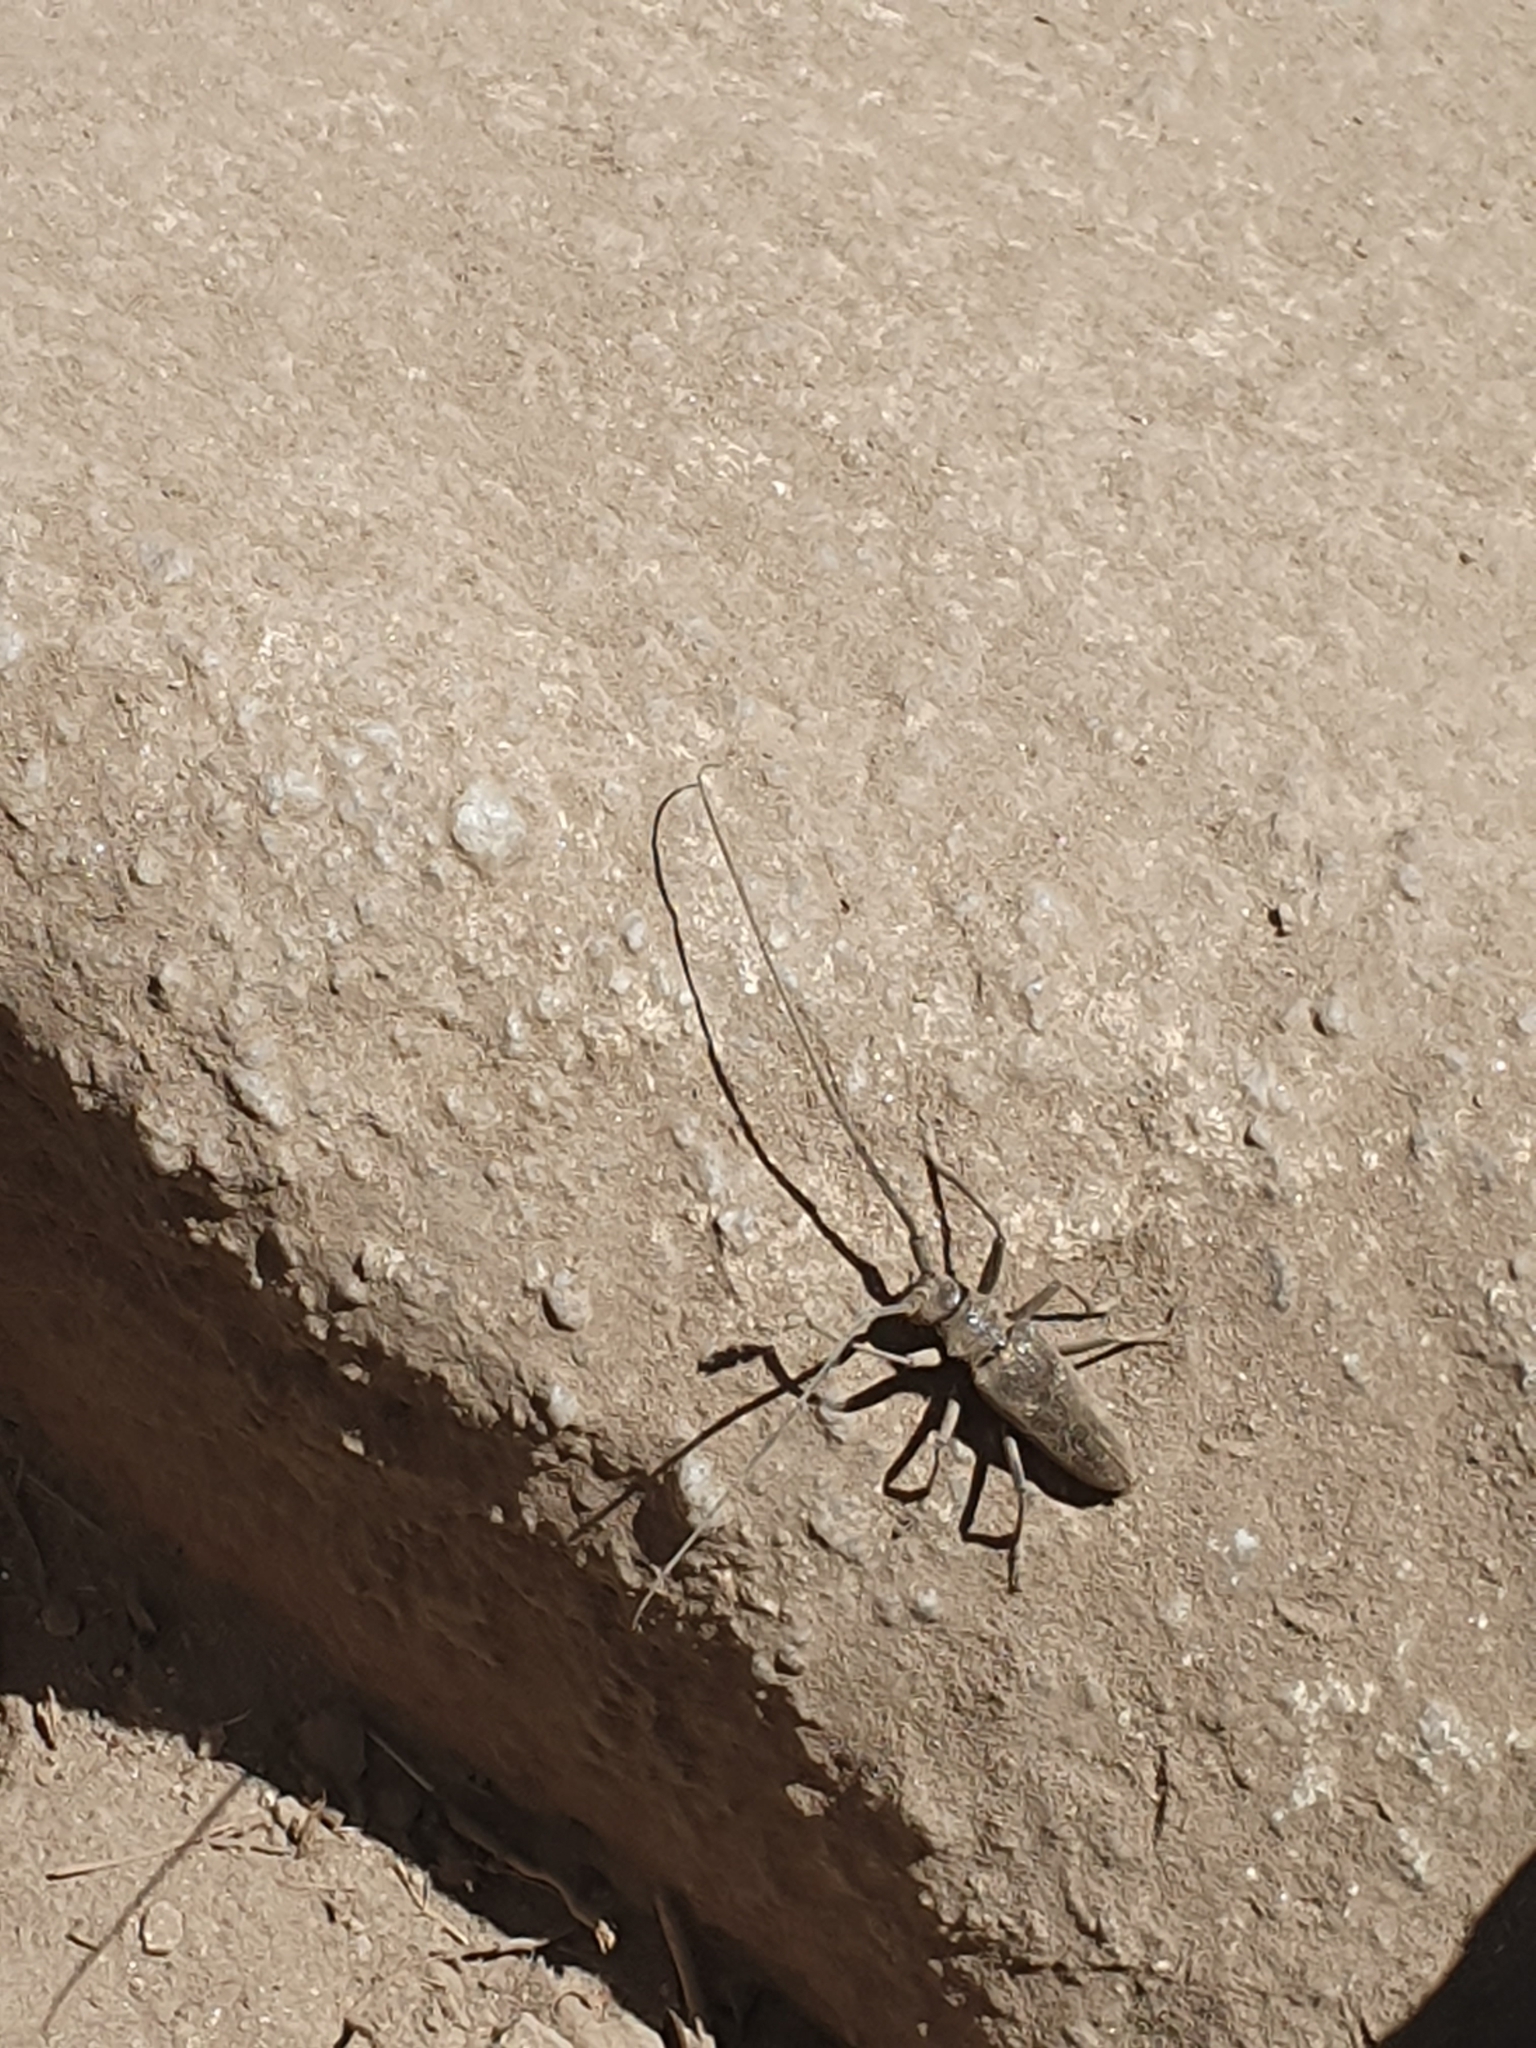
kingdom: Animalia
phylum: Arthropoda
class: Insecta
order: Coleoptera
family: Cerambycidae
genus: Monochamus
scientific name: Monochamus sartor
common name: Pine sawyer
